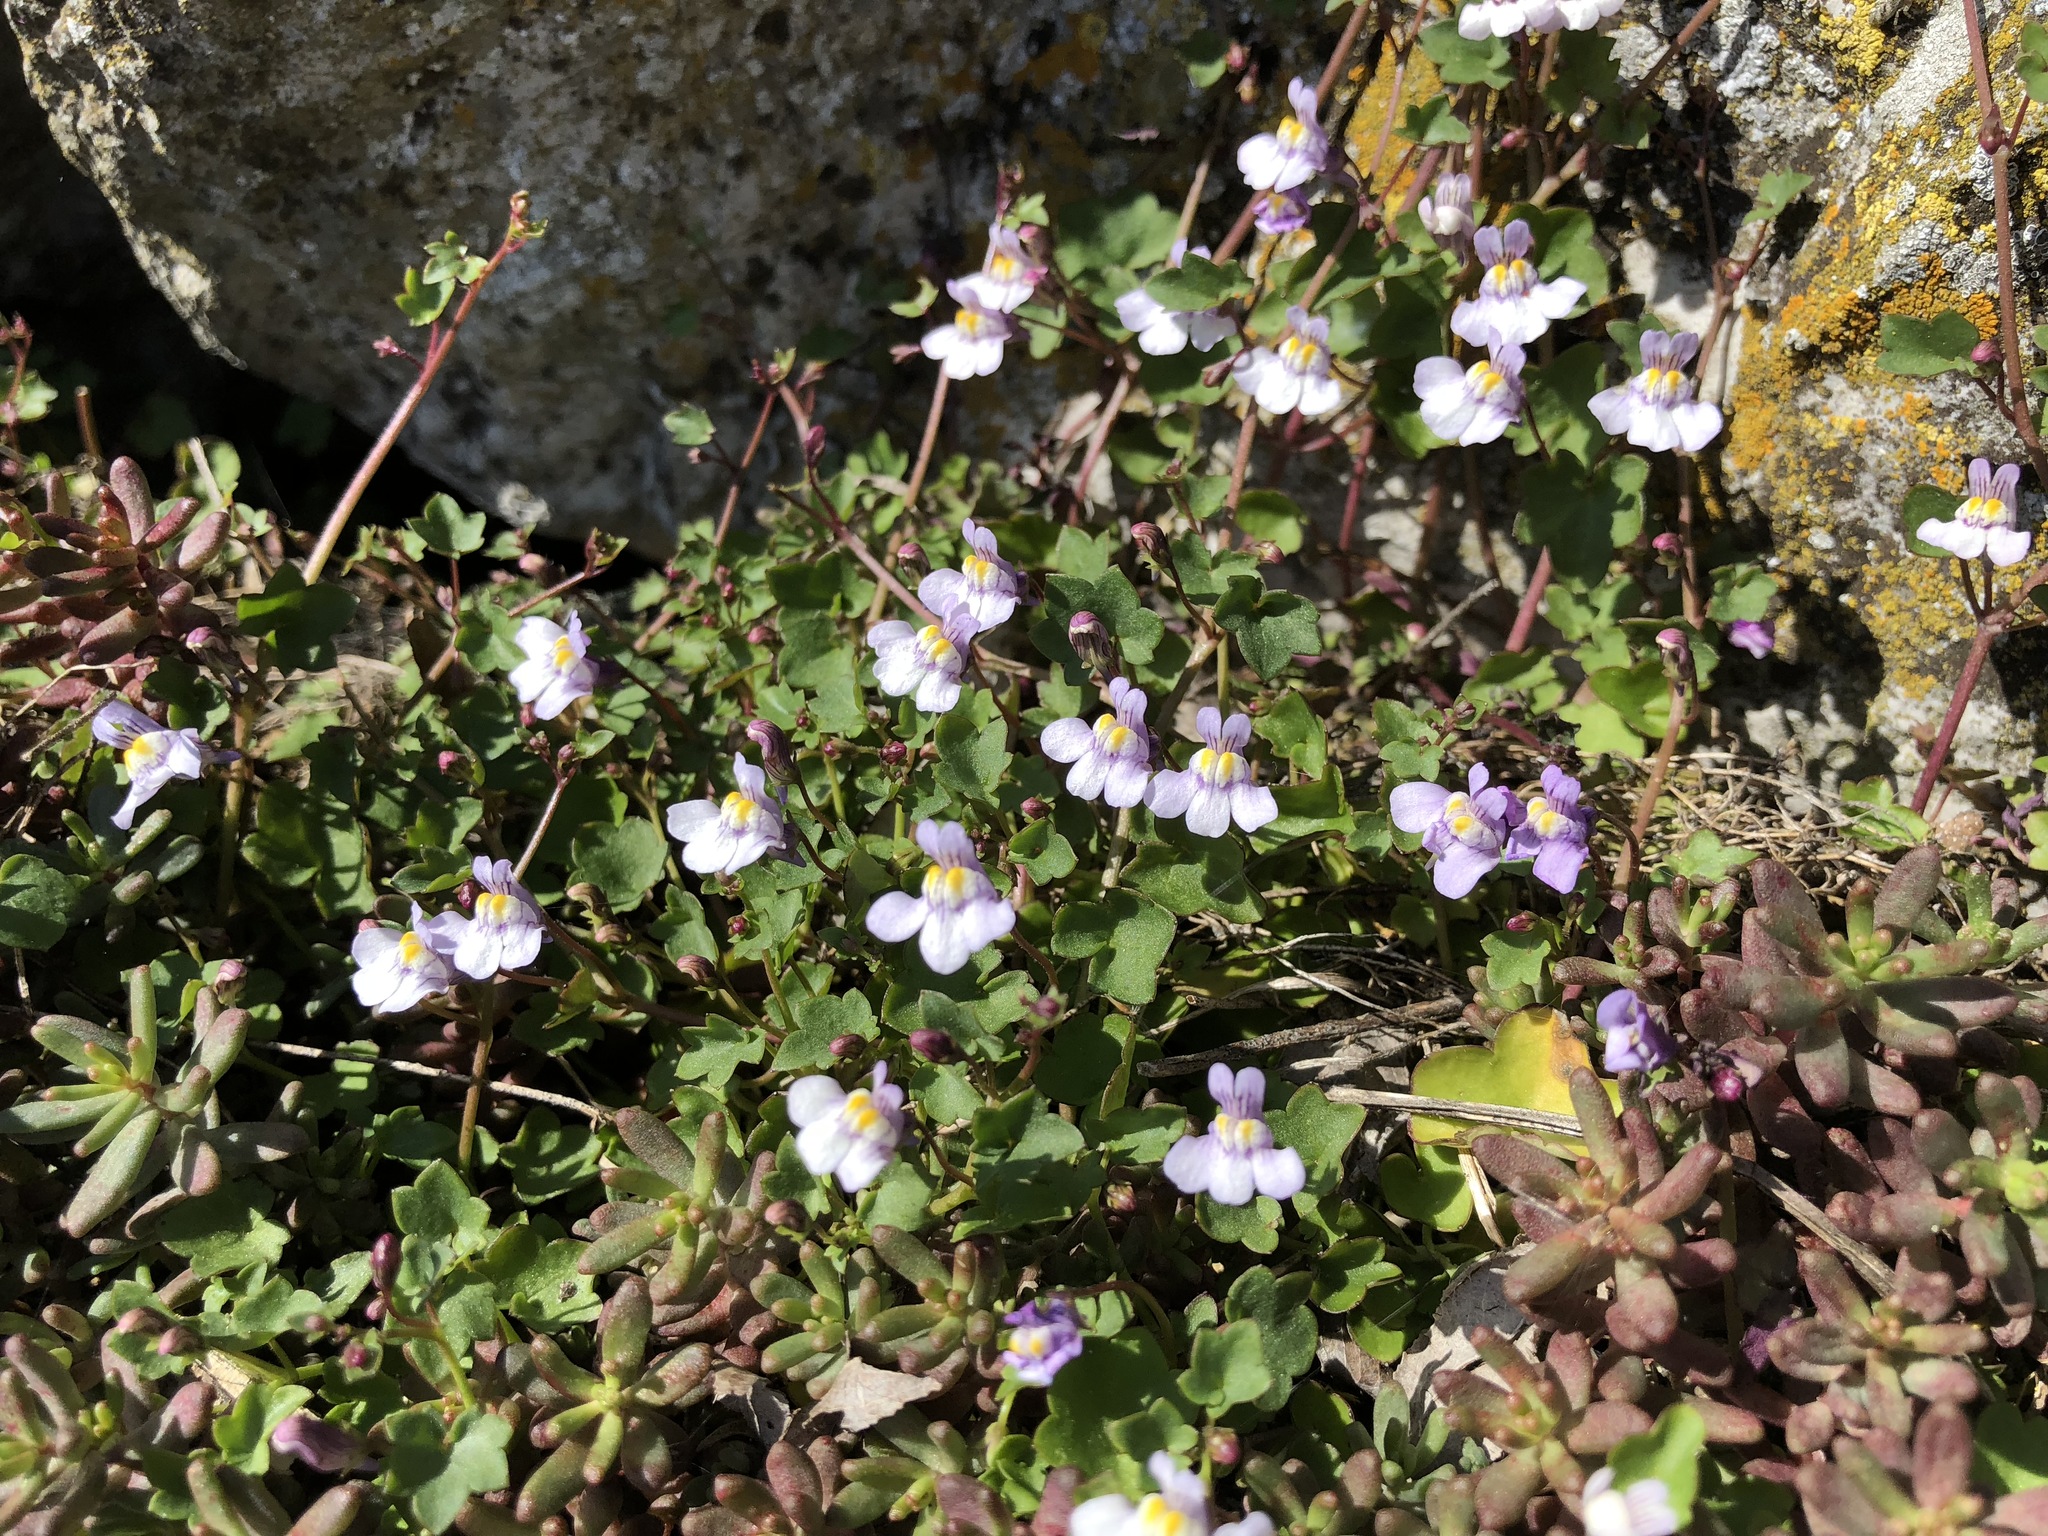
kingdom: Plantae
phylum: Tracheophyta
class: Magnoliopsida
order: Lamiales
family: Plantaginaceae
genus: Cymbalaria
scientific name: Cymbalaria muralis
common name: Ivy-leaved toadflax
